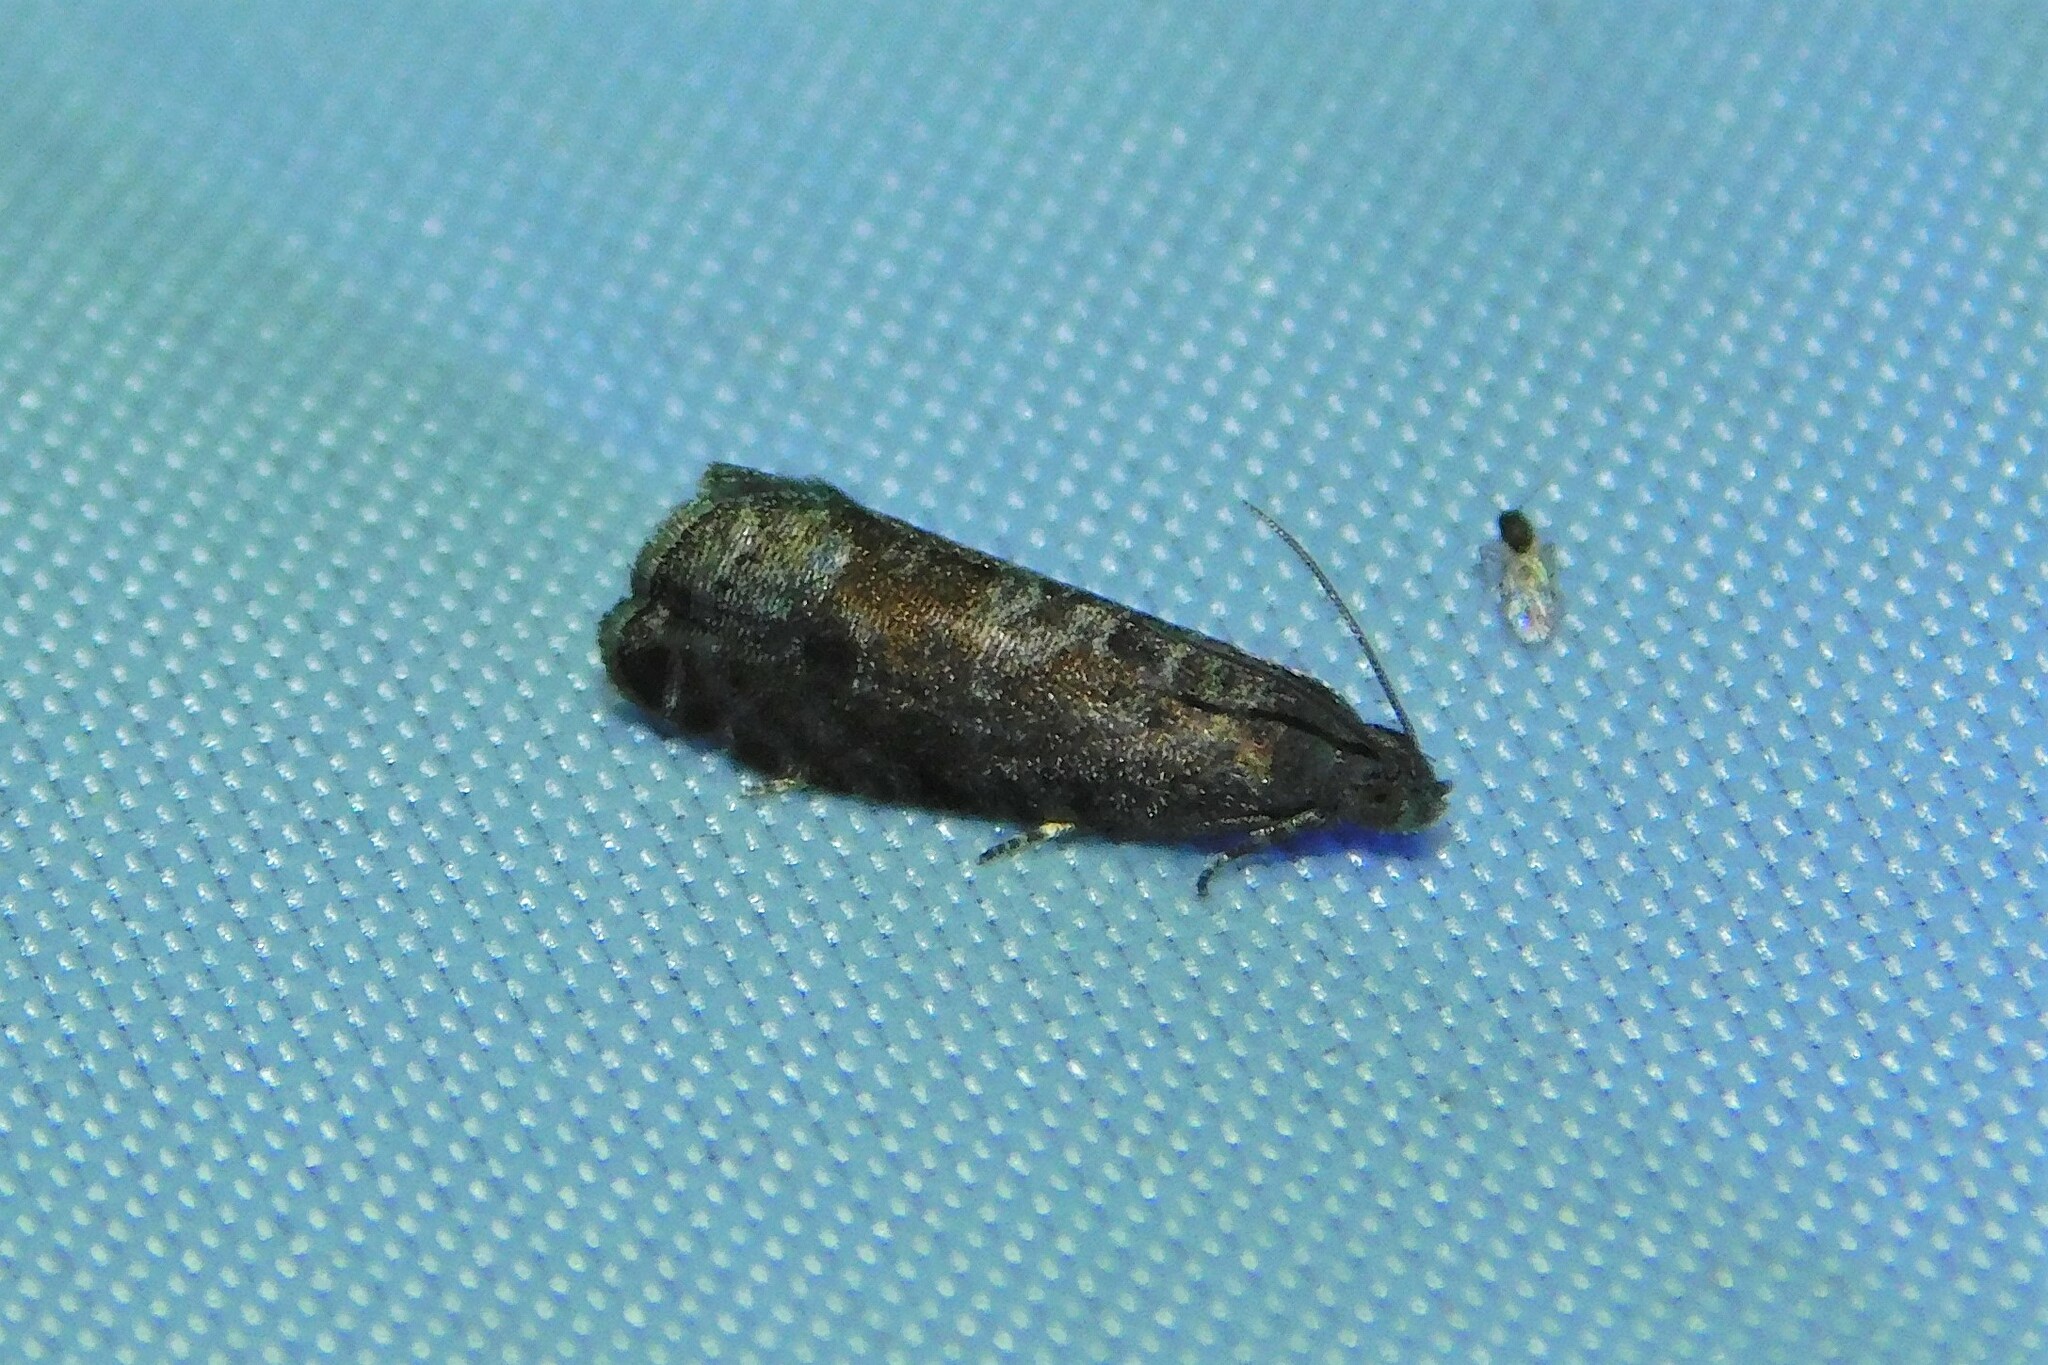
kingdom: Animalia
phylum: Arthropoda
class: Insecta
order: Lepidoptera
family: Noctuidae
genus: Aspila
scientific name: Aspila
